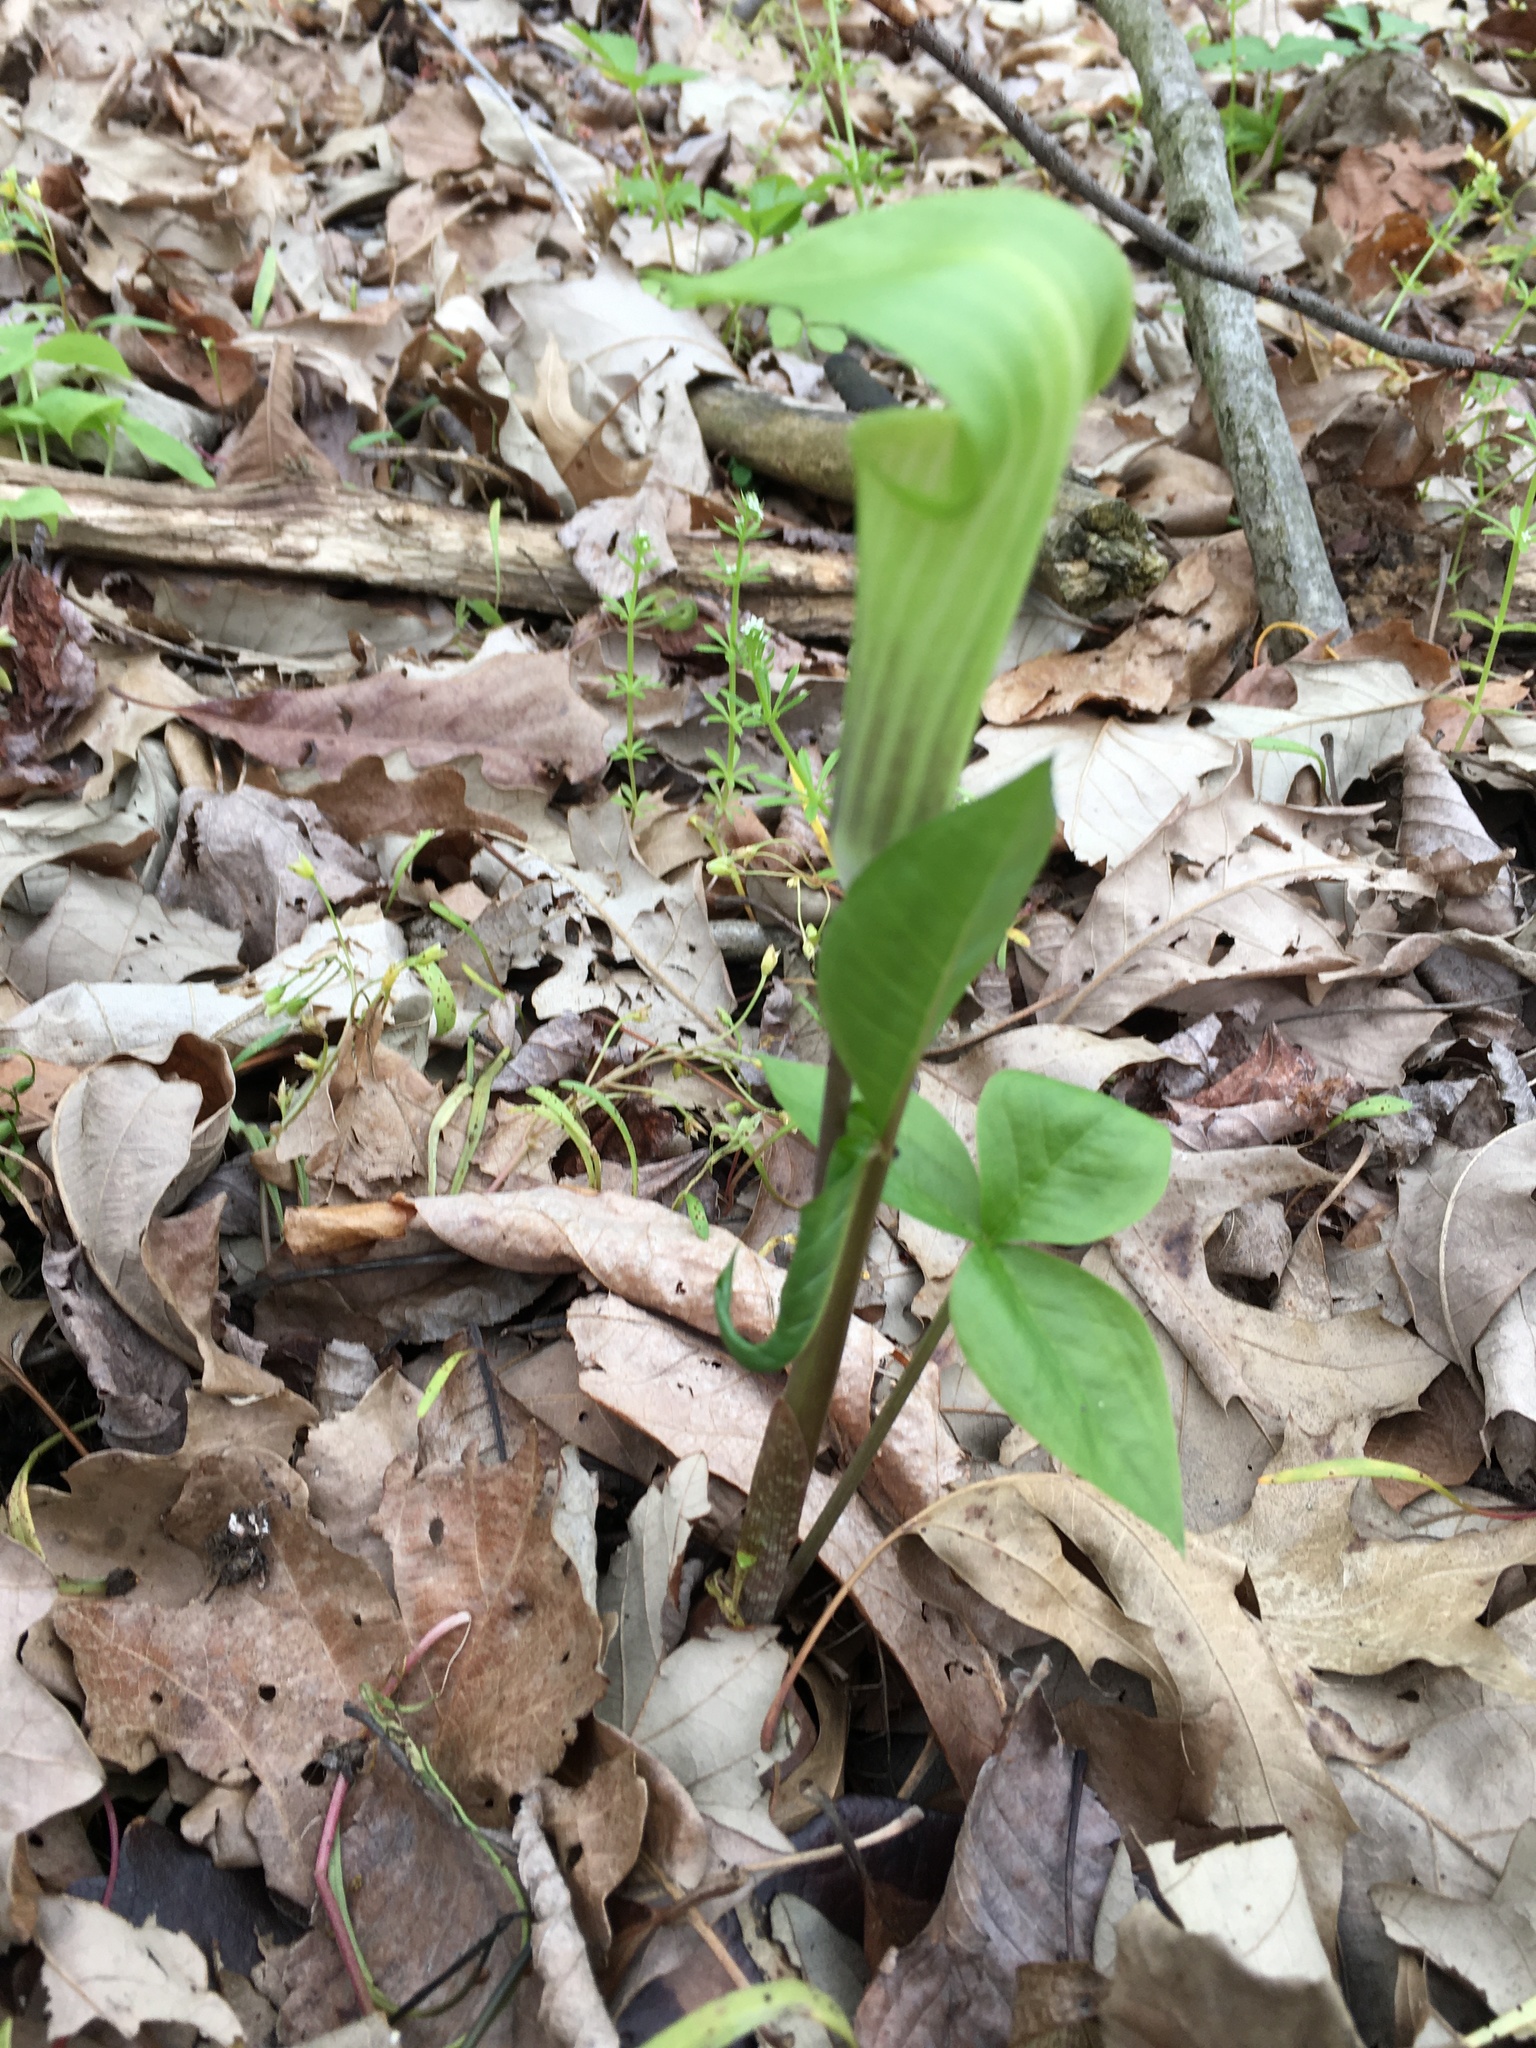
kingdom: Plantae
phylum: Tracheophyta
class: Liliopsida
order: Alismatales
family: Araceae
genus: Arisaema
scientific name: Arisaema triphyllum
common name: Jack-in-the-pulpit
